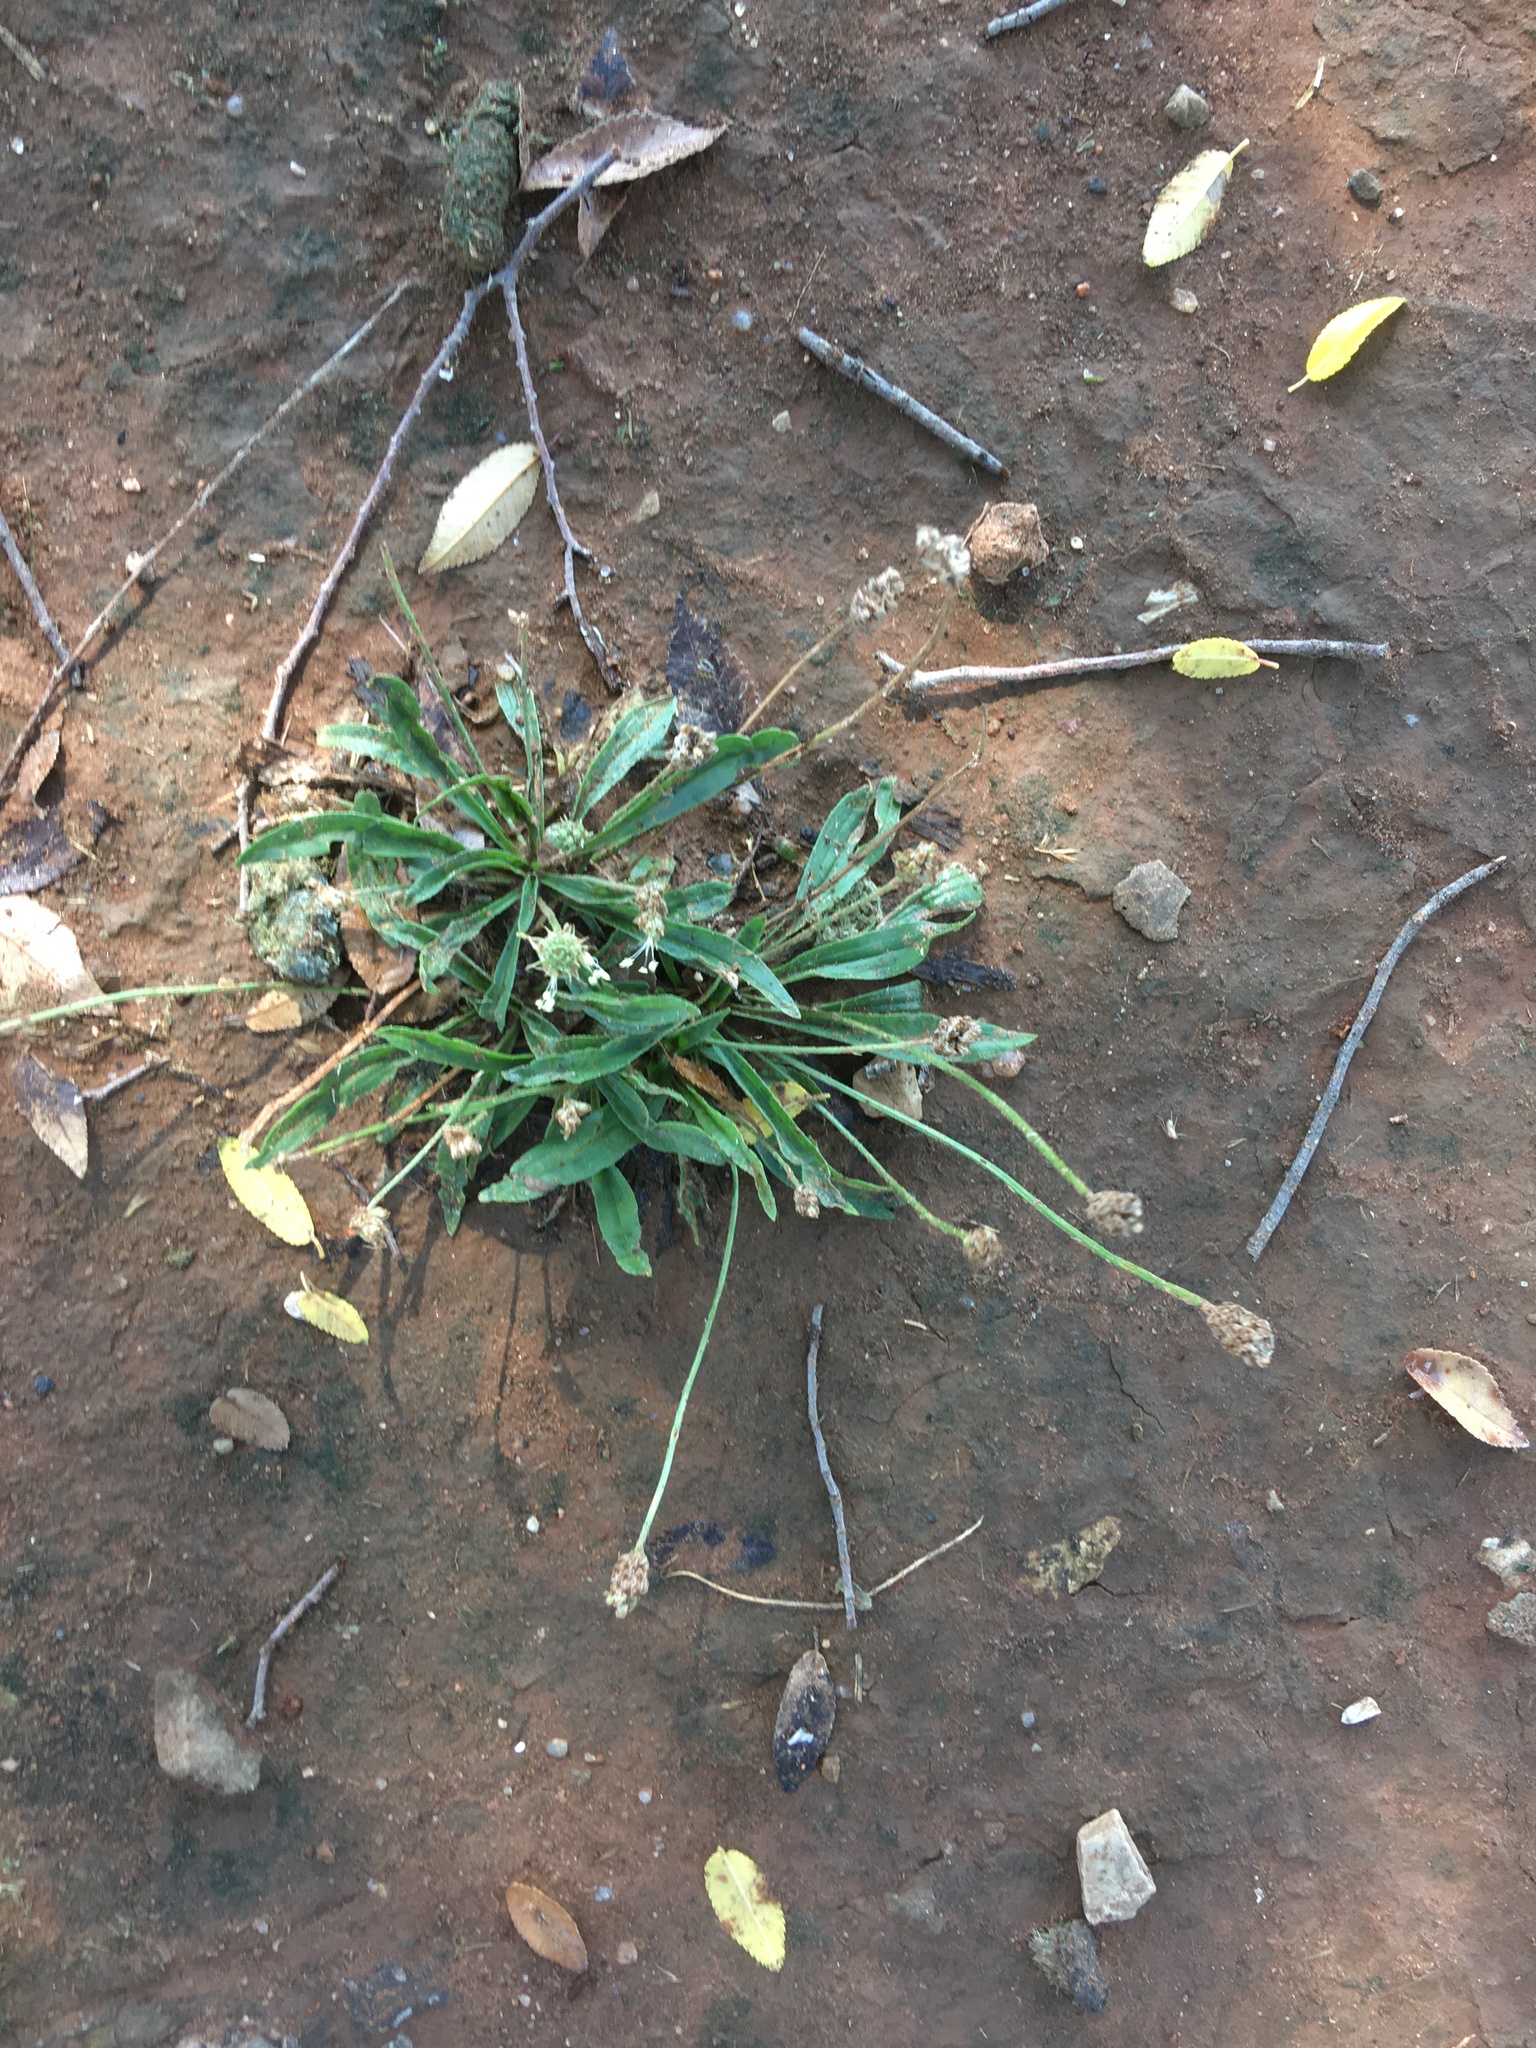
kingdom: Plantae
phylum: Tracheophyta
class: Magnoliopsida
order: Lamiales
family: Plantaginaceae
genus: Plantago
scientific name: Plantago lanceolata
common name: Ribwort plantain
